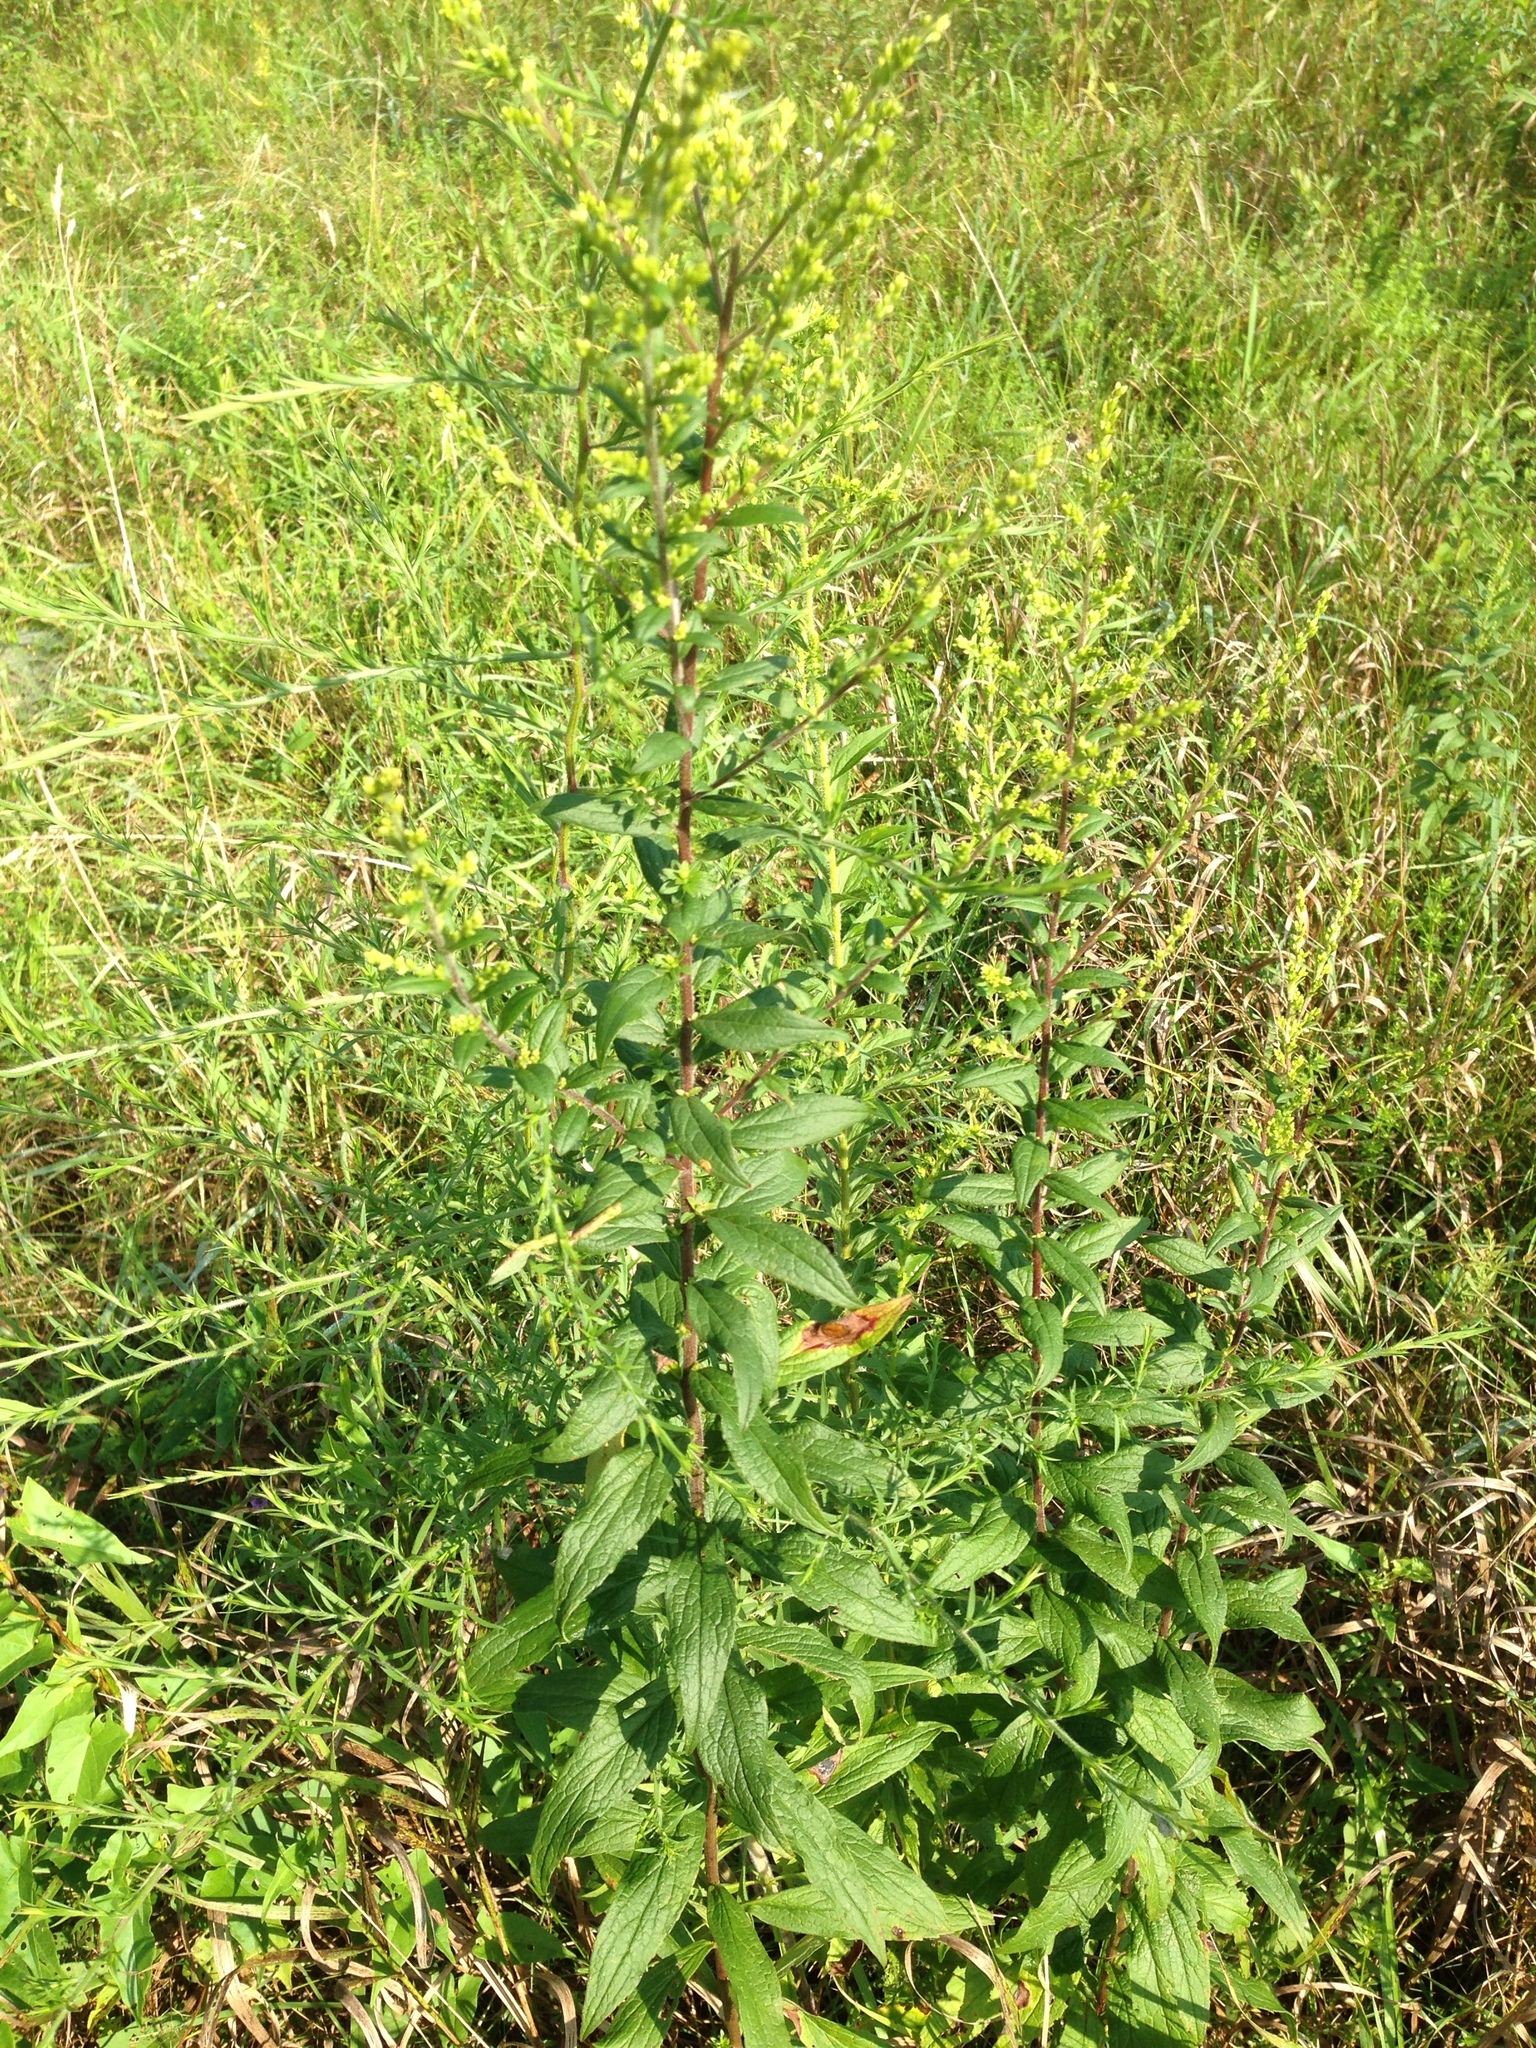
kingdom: Plantae
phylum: Tracheophyta
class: Magnoliopsida
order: Asterales
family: Asteraceae
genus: Solidago
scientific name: Solidago rugosa
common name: Rough-stemmed goldenrod
